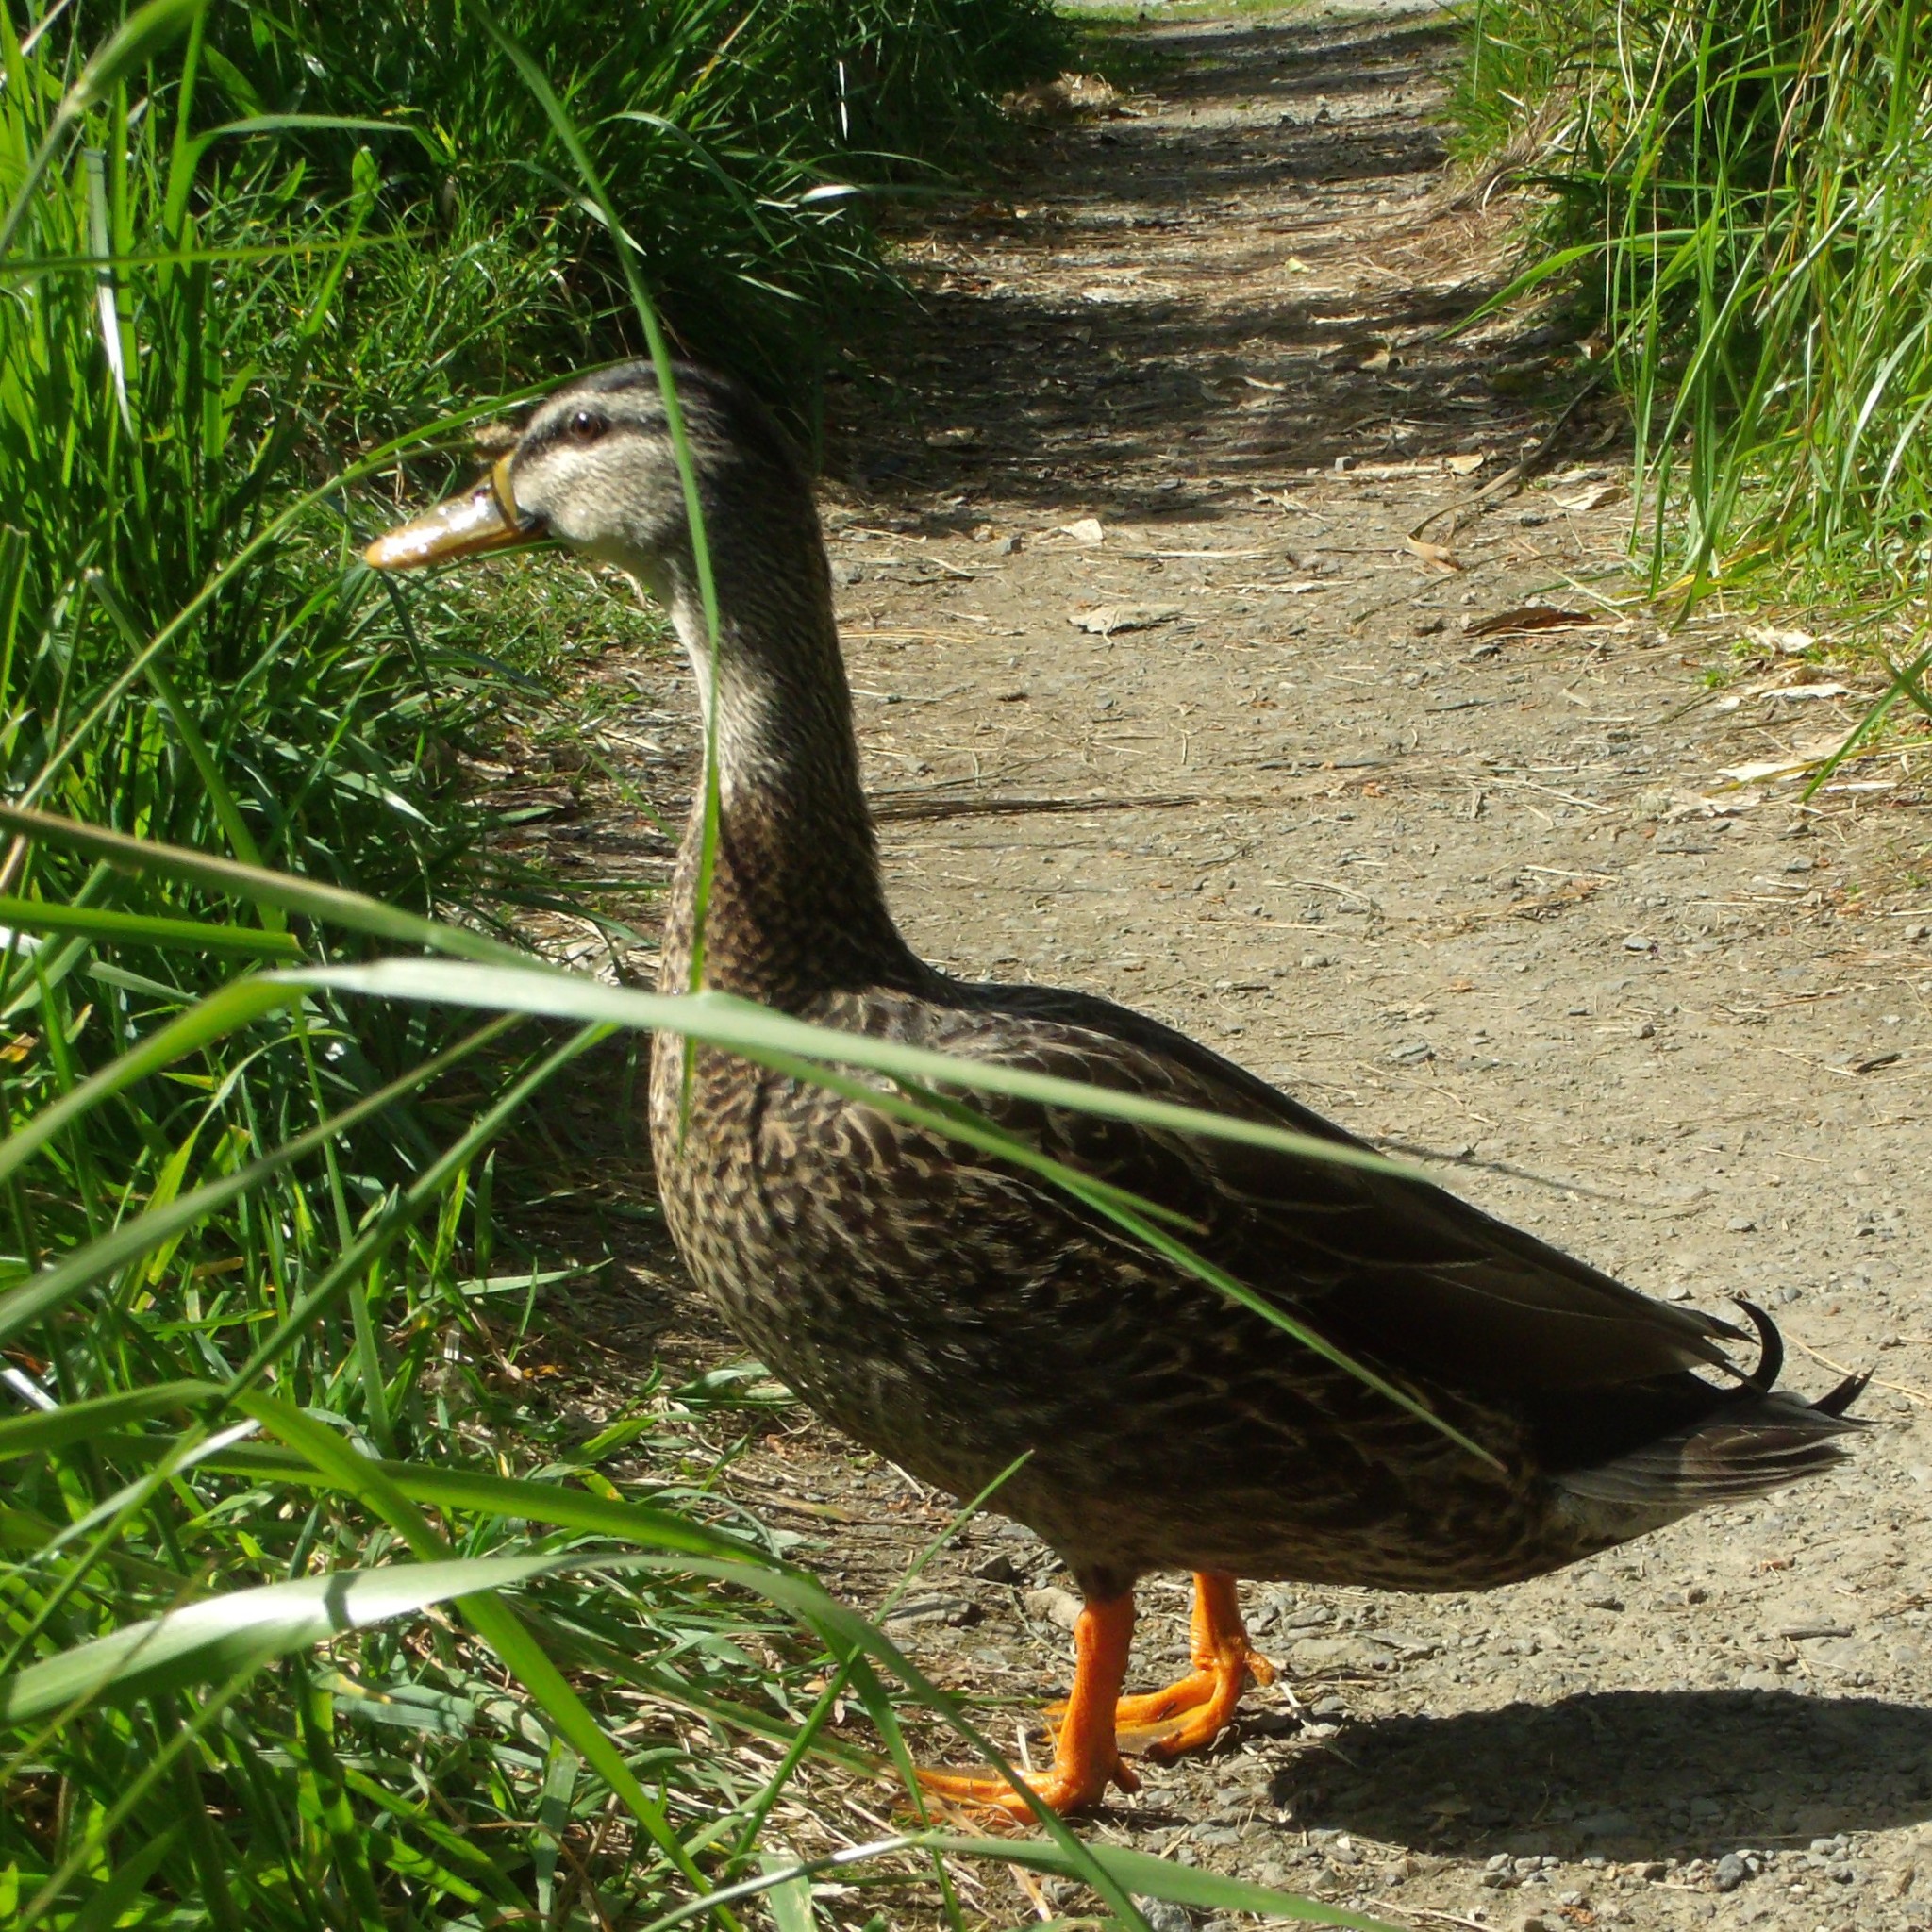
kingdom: Animalia
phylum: Chordata
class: Aves
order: Anseriformes
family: Anatidae
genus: Anas
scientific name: Anas
